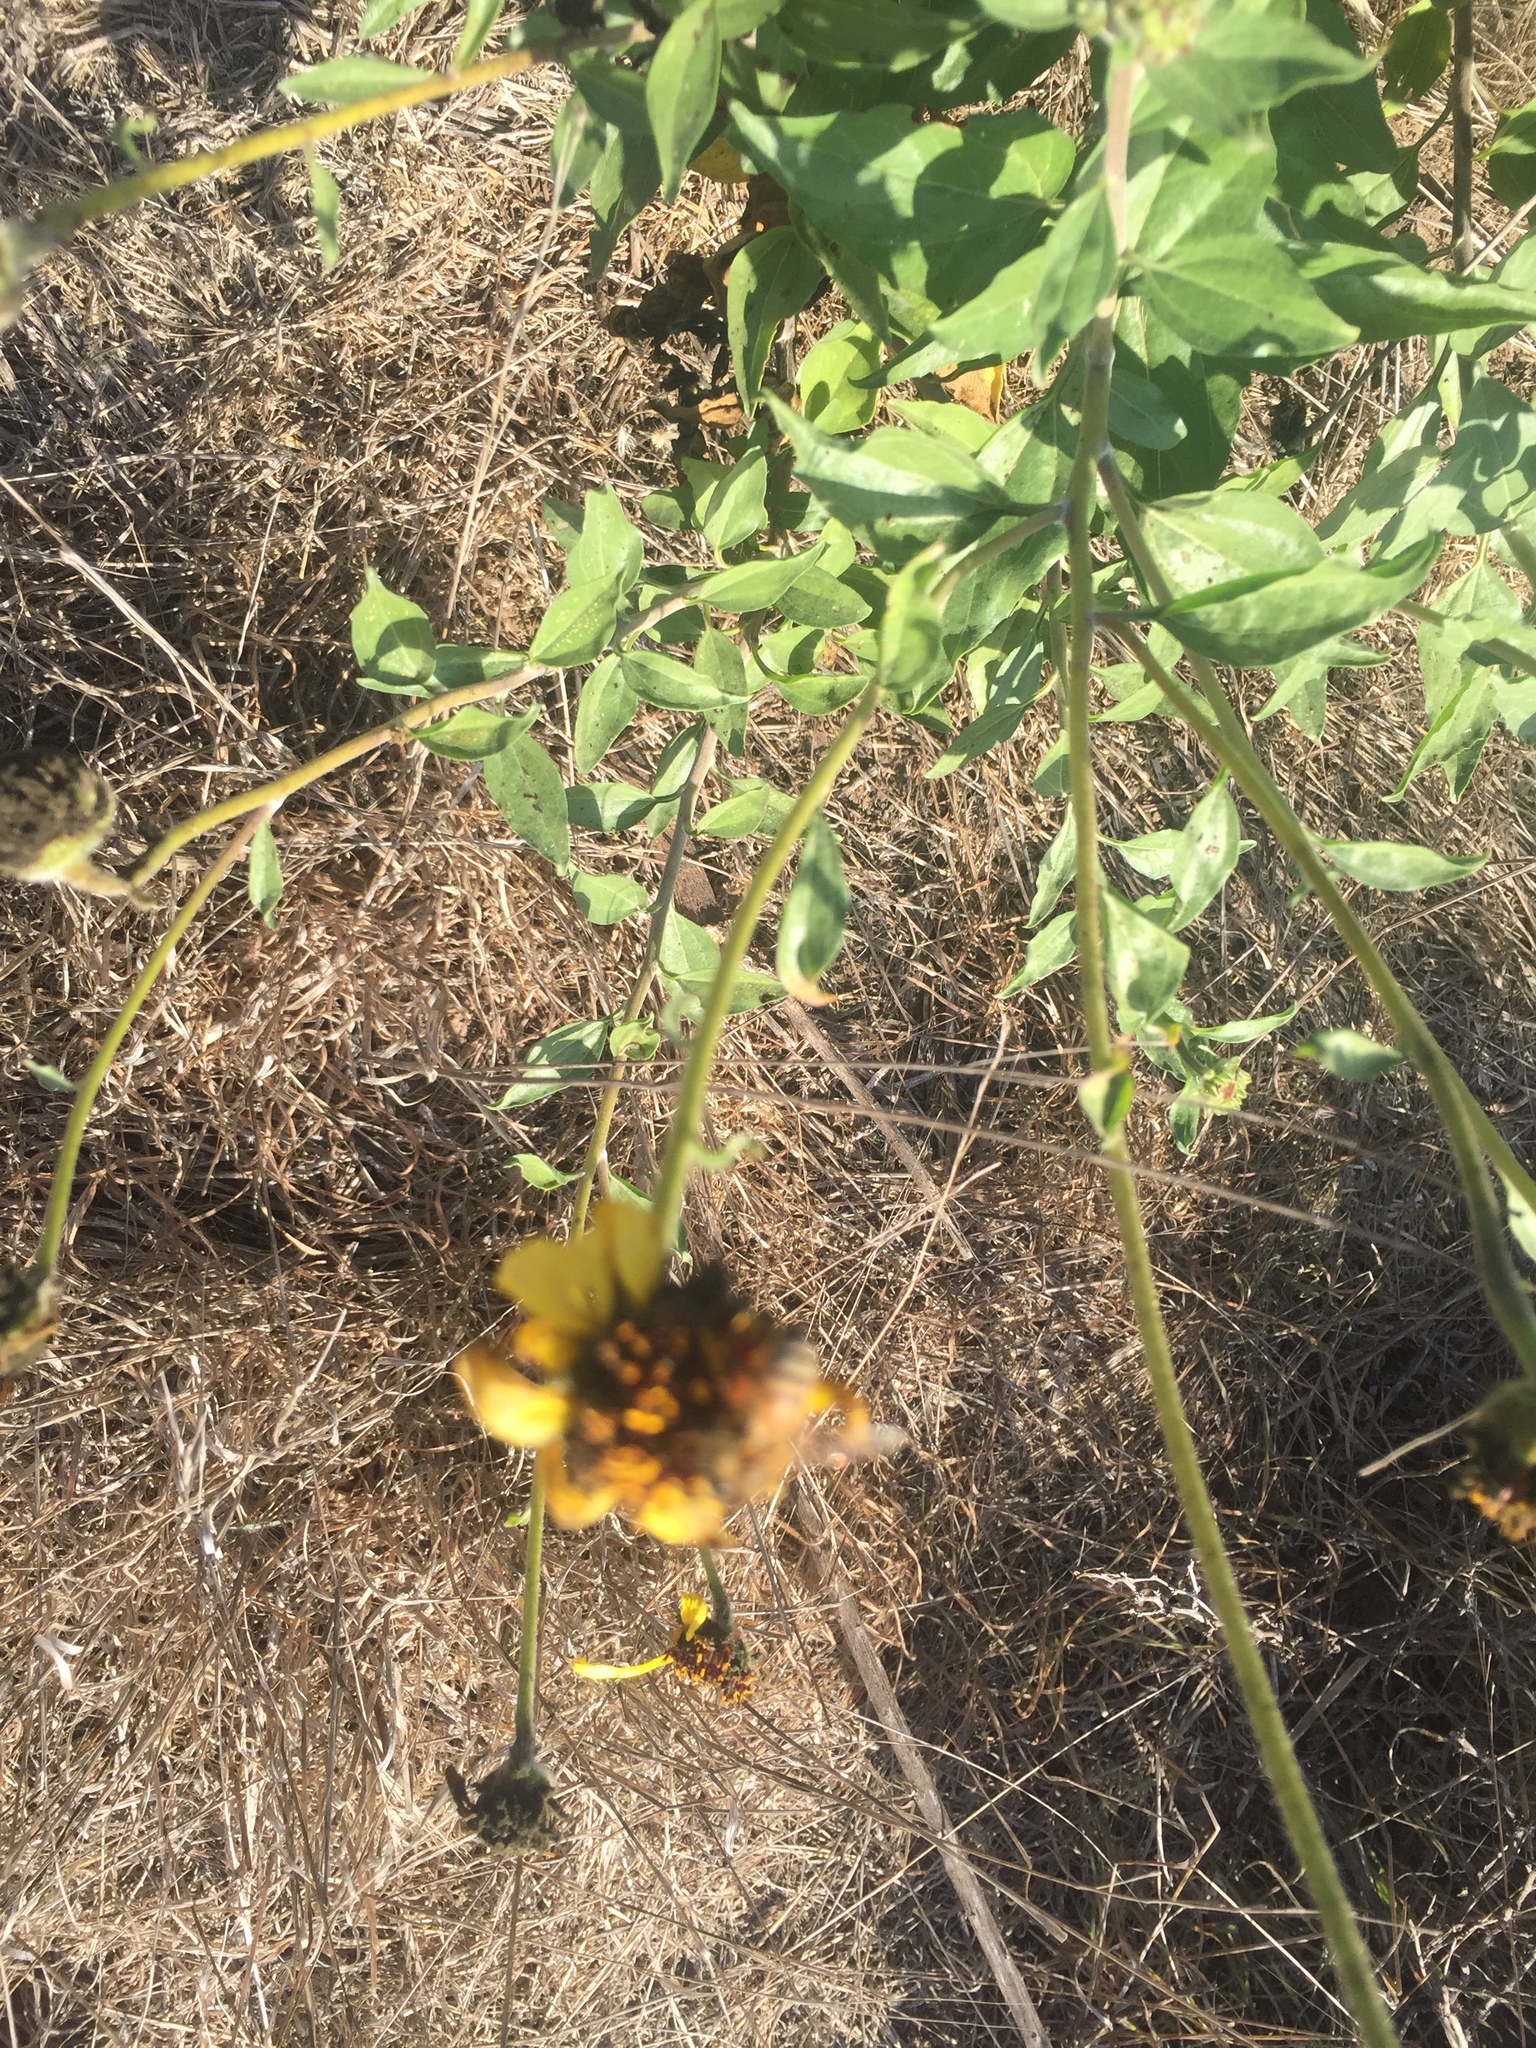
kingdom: Plantae
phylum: Tracheophyta
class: Magnoliopsida
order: Asterales
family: Asteraceae
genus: Encelia
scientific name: Encelia californica
